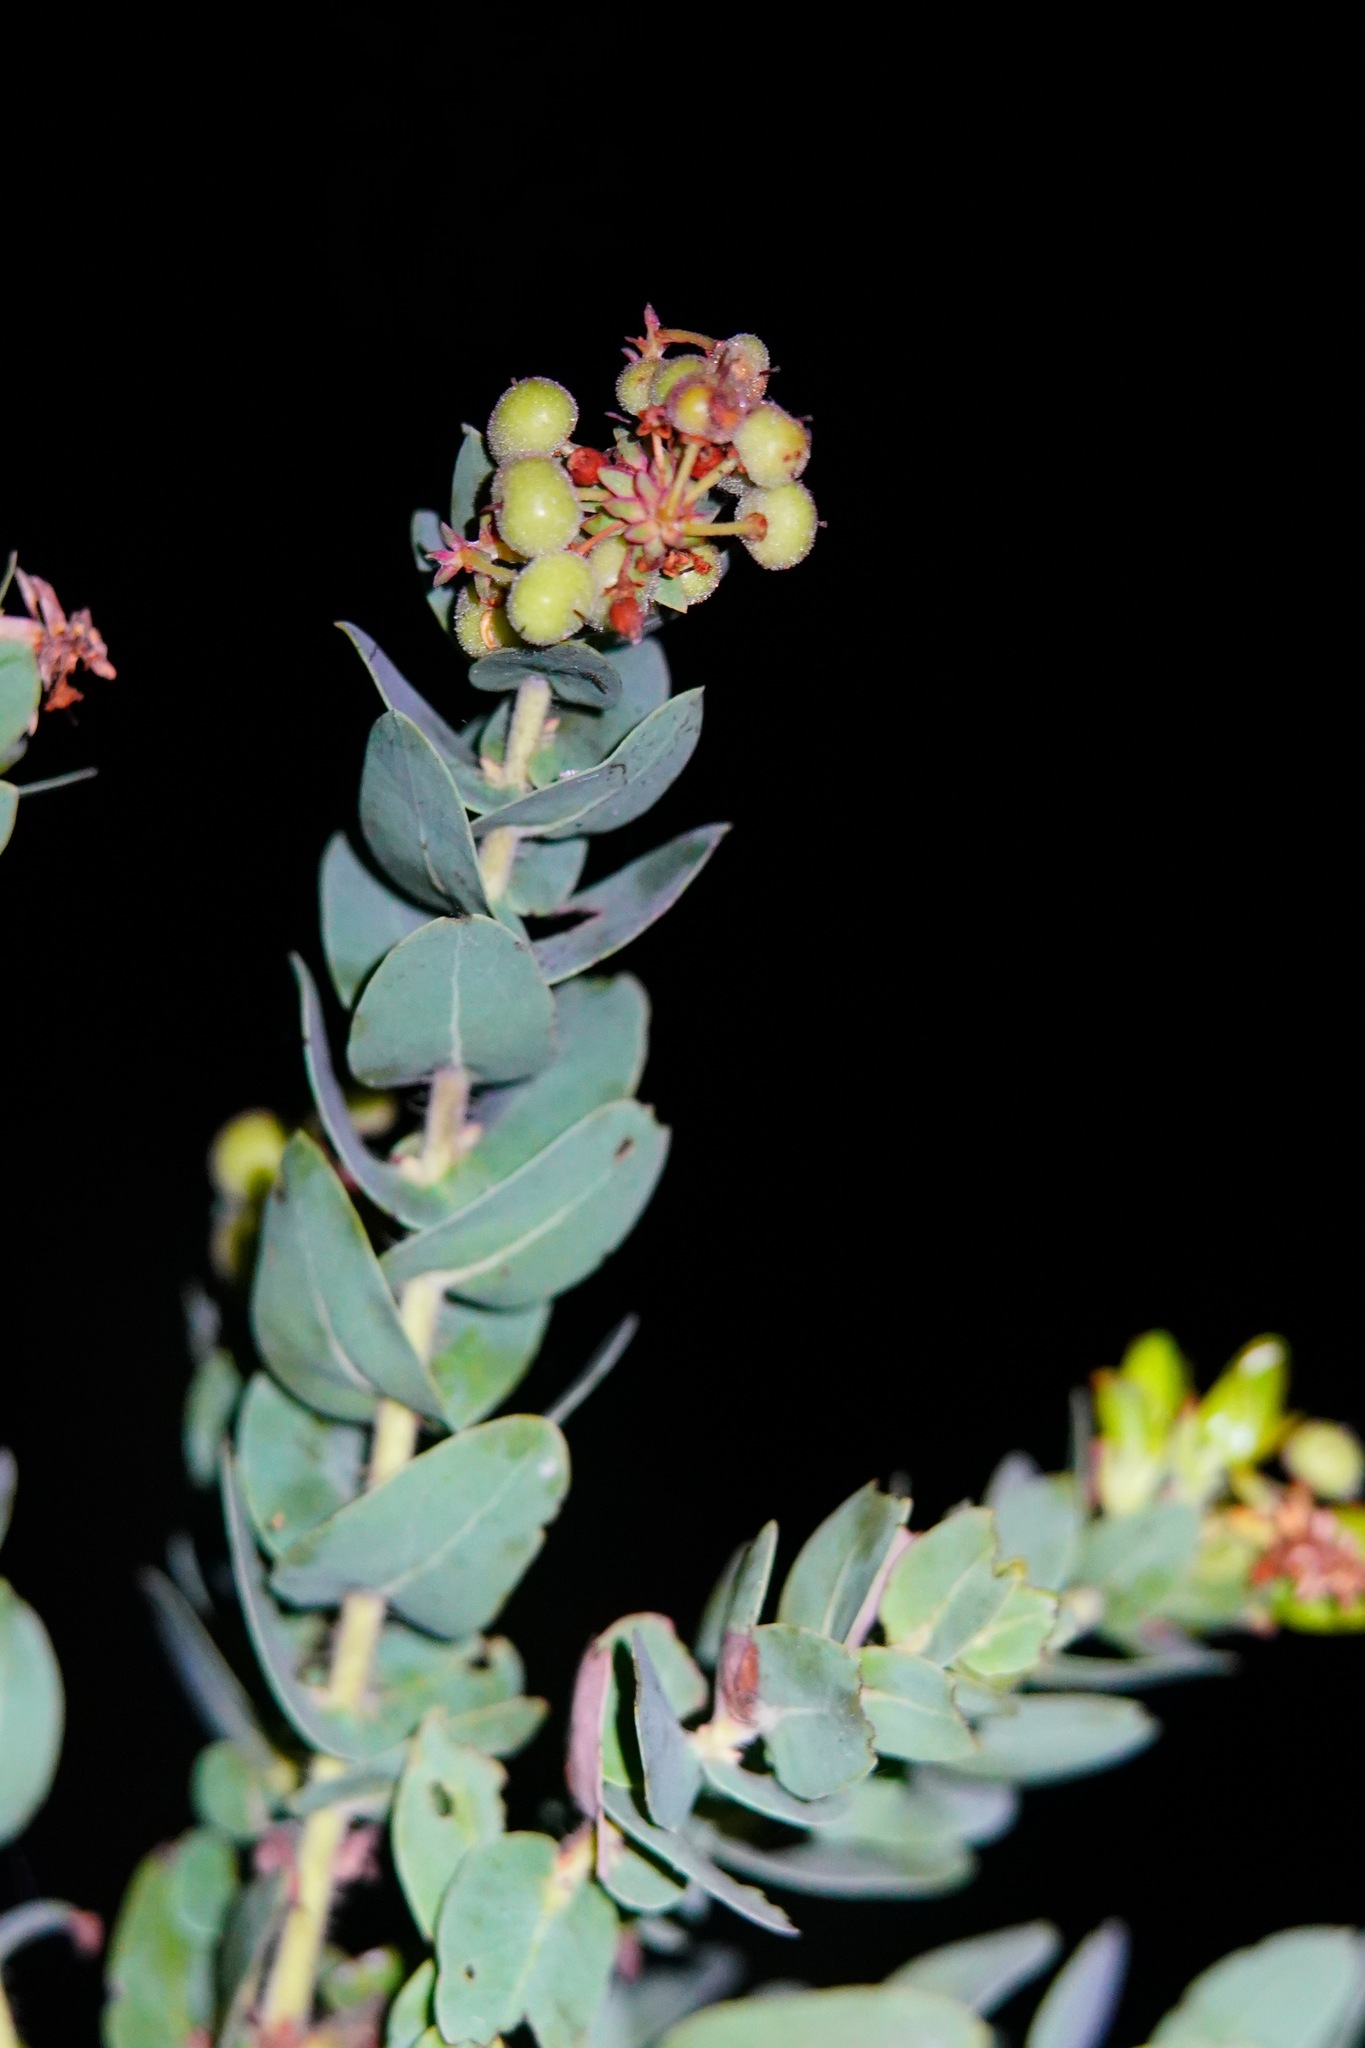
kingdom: Plantae
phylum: Tracheophyta
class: Magnoliopsida
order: Ericales
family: Ericaceae
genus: Arctostaphylos
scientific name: Arctostaphylos pallida
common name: Pallid manzanita
